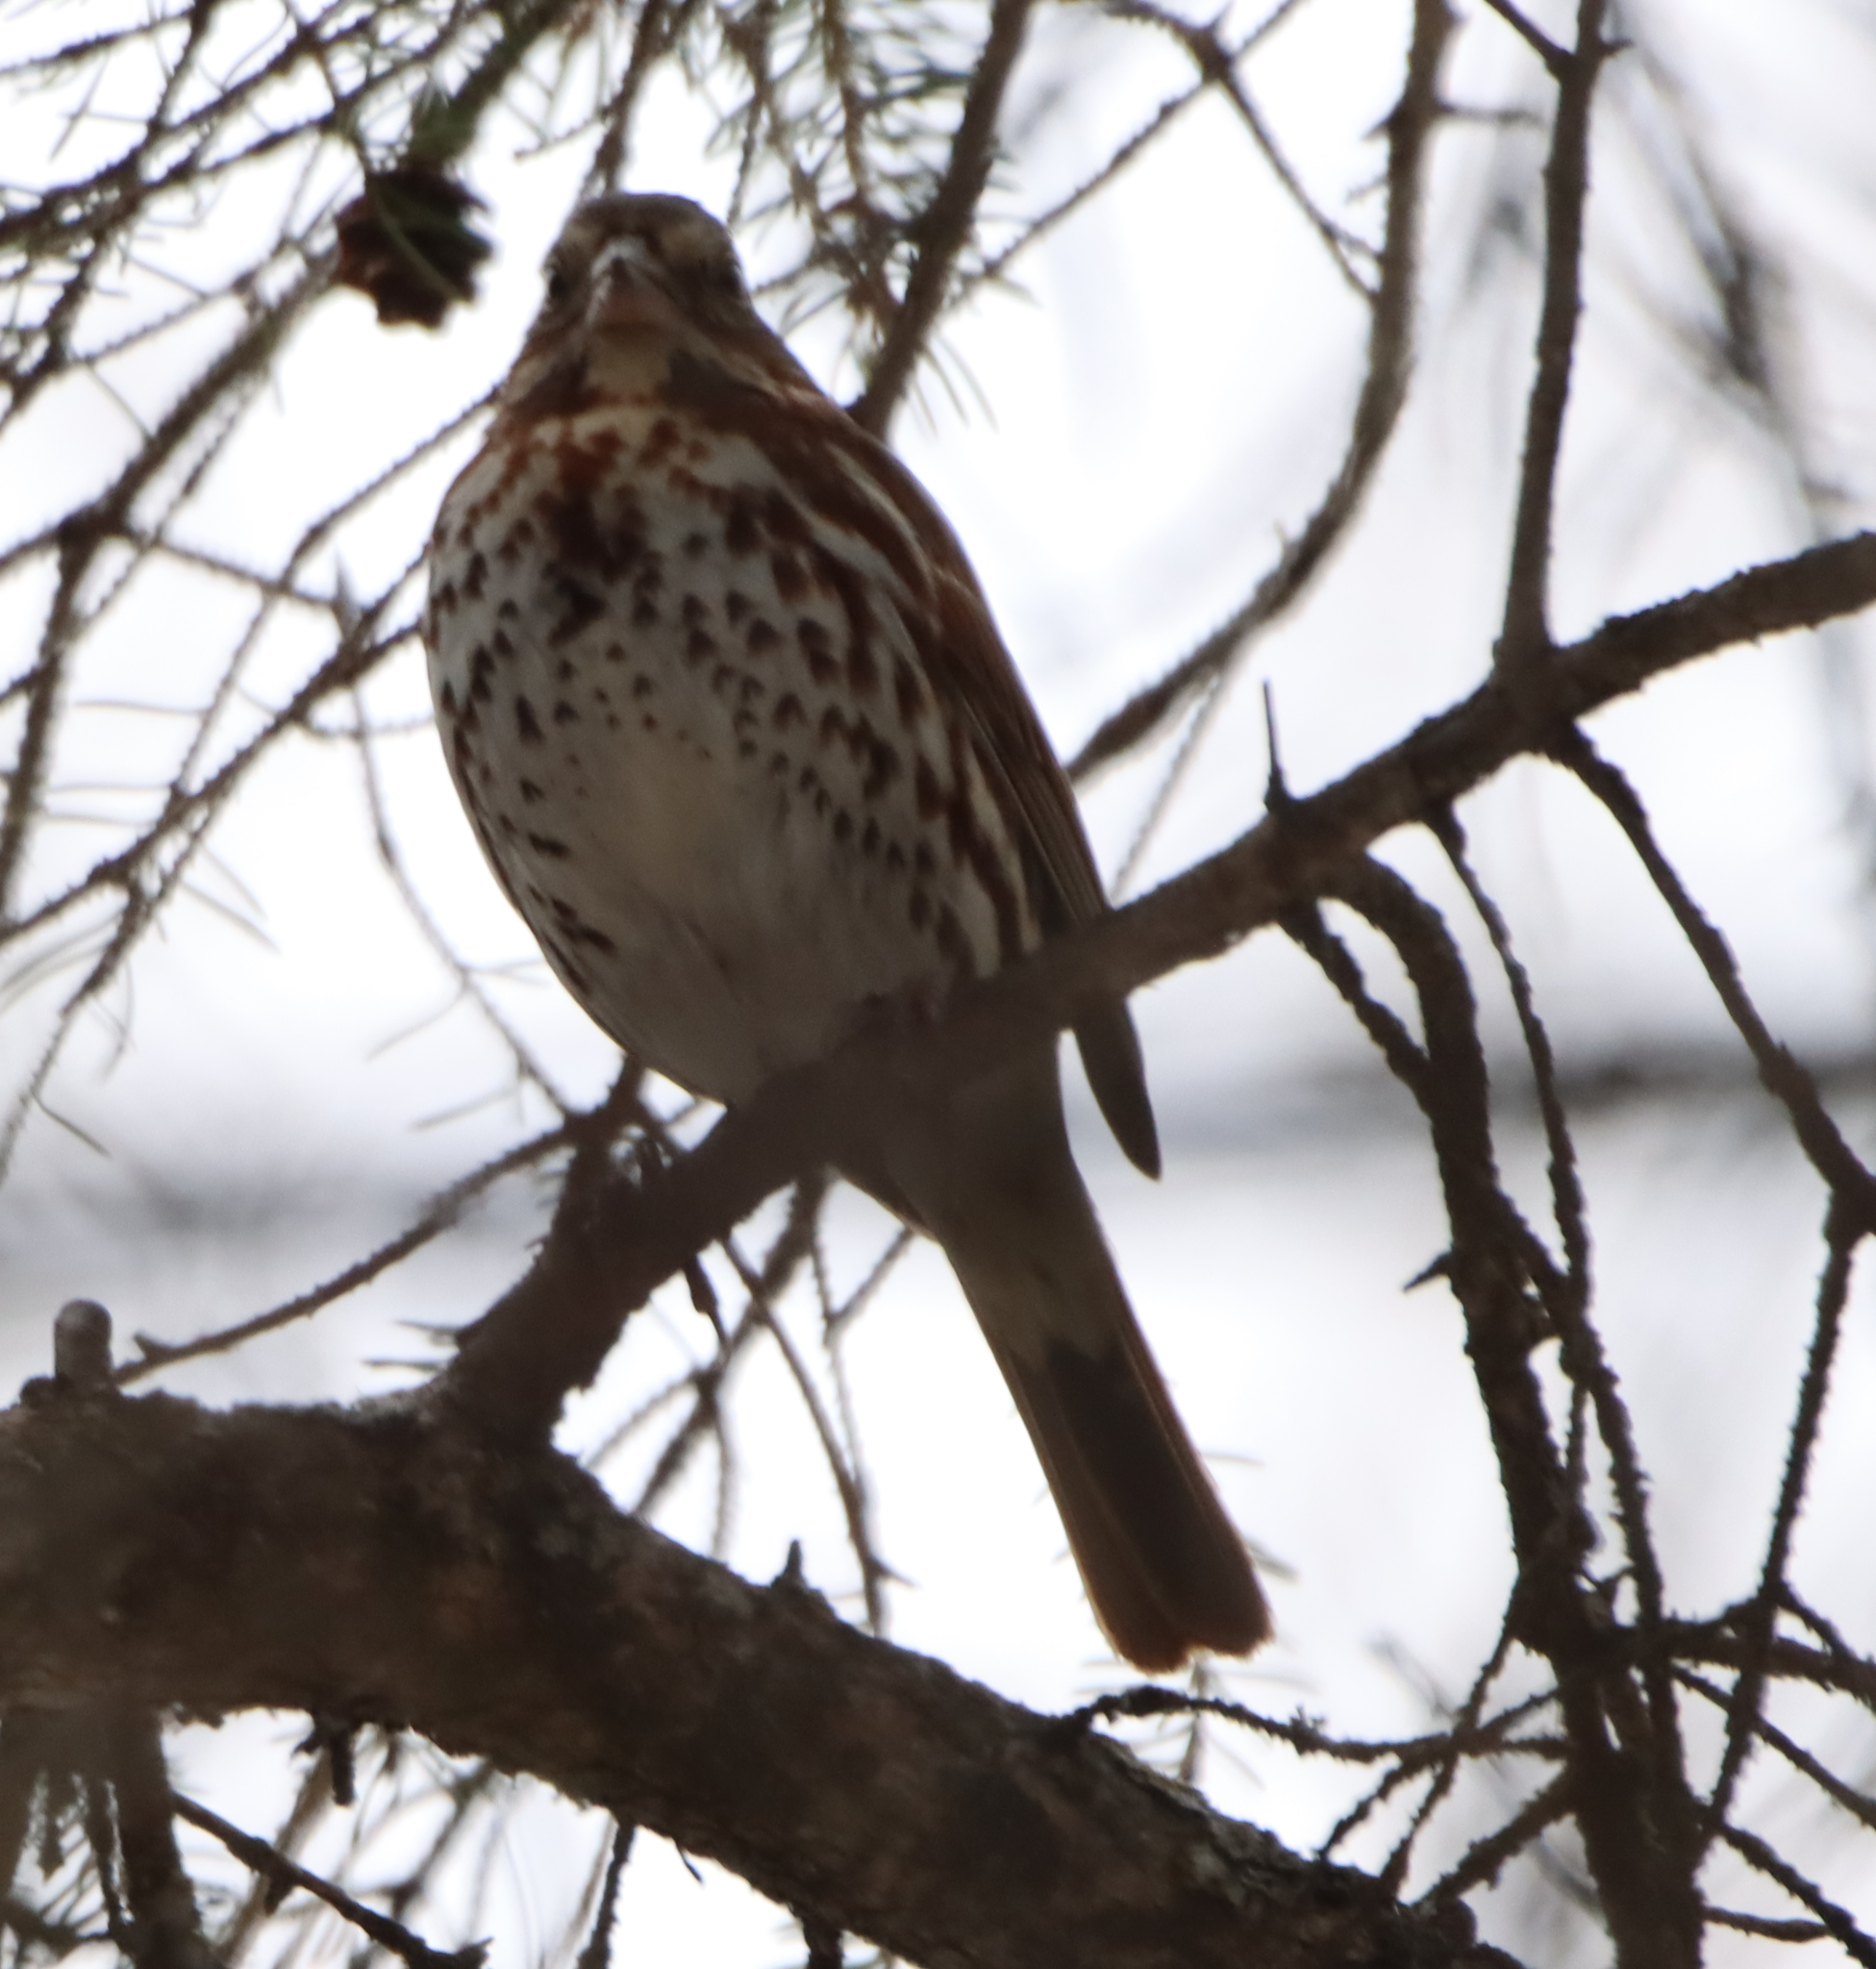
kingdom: Animalia
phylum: Chordata
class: Aves
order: Passeriformes
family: Passerellidae
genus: Passerella
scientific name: Passerella iliaca
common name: Fox sparrow
